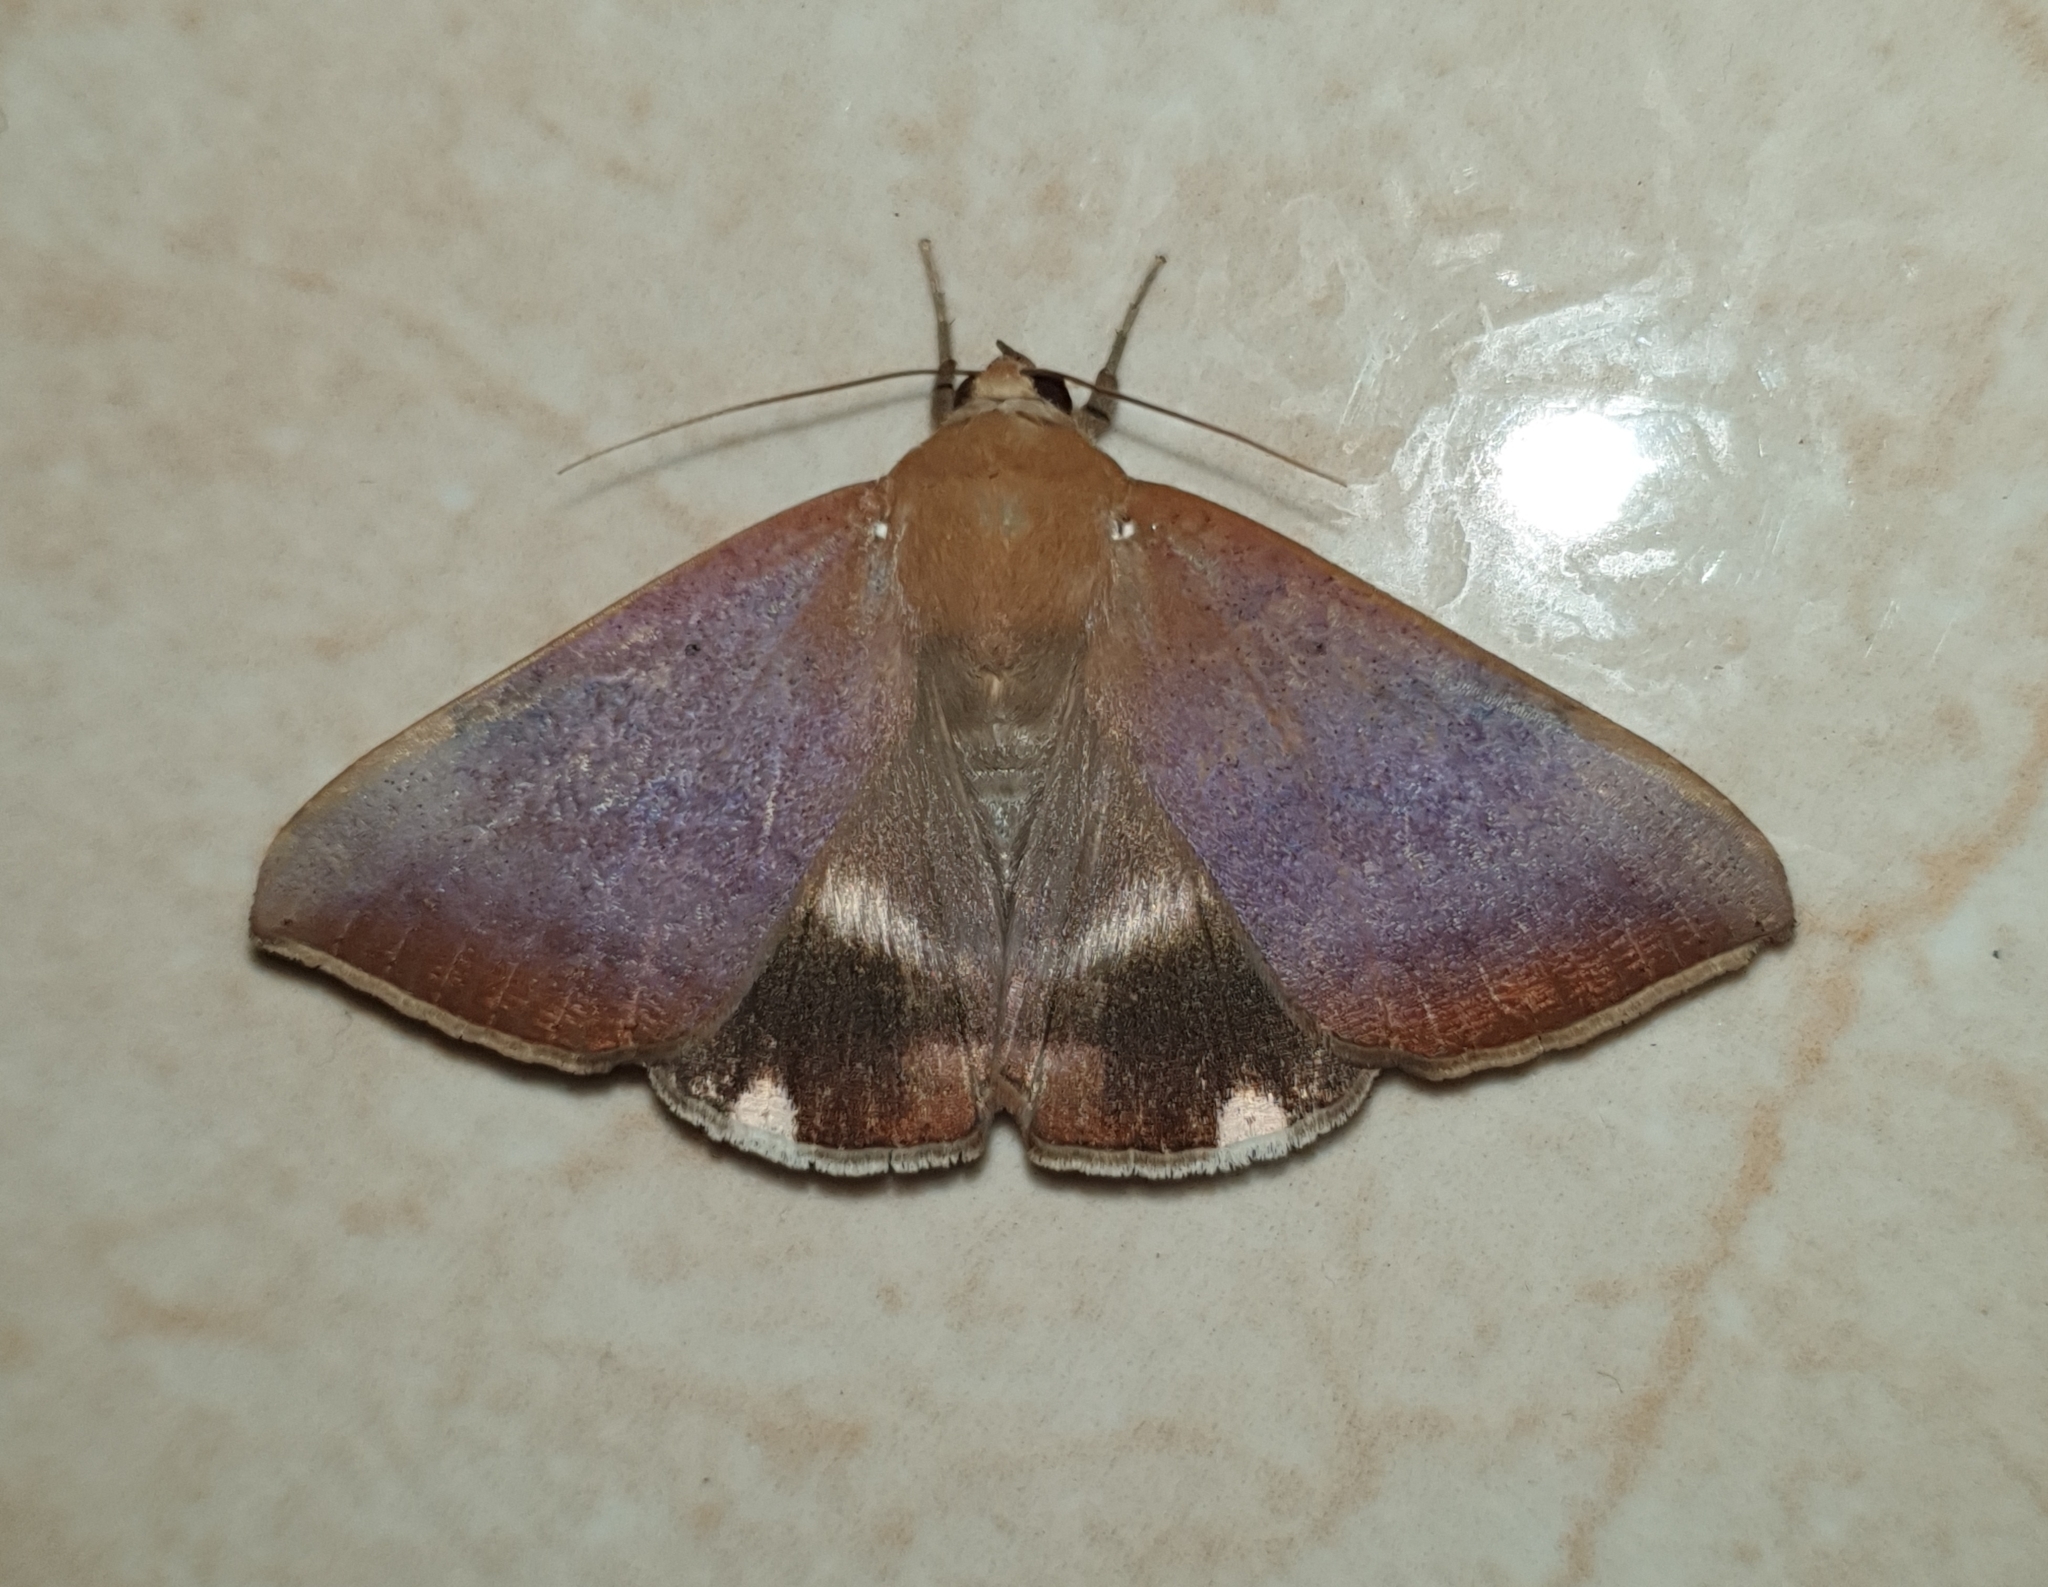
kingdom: Animalia
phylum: Arthropoda
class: Insecta
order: Lepidoptera
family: Erebidae
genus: Achaea
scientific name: Achaea serva
